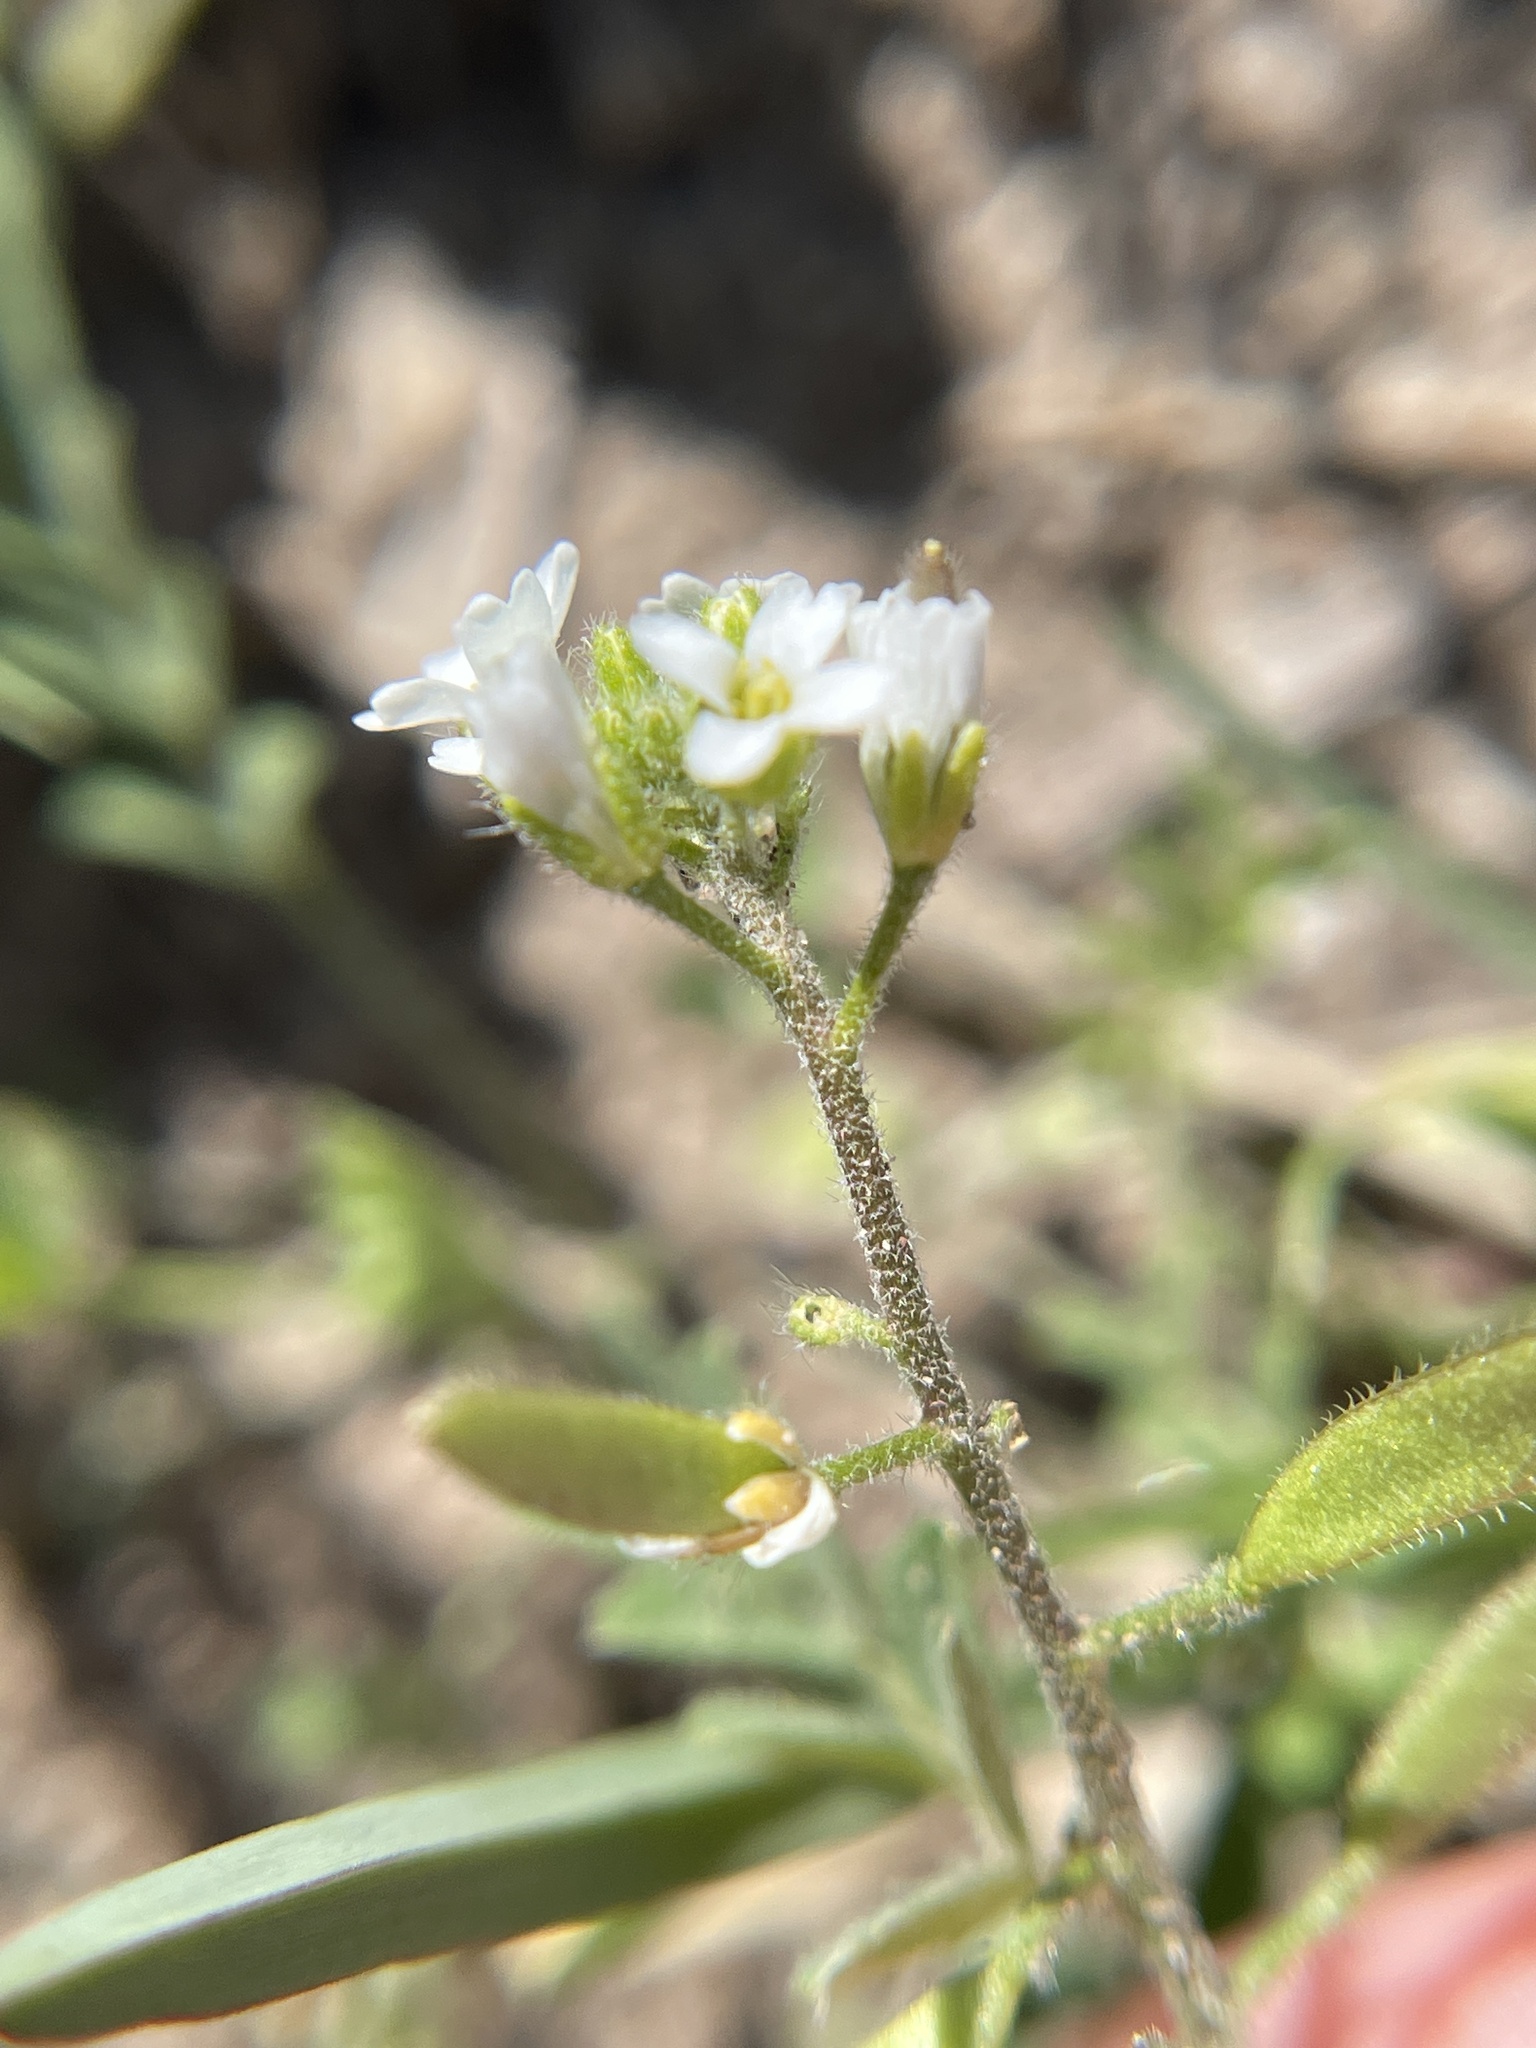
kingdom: Plantae
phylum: Tracheophyta
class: Magnoliopsida
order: Brassicales
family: Brassicaceae
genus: Tomostima
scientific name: Tomostima cuneifolia
